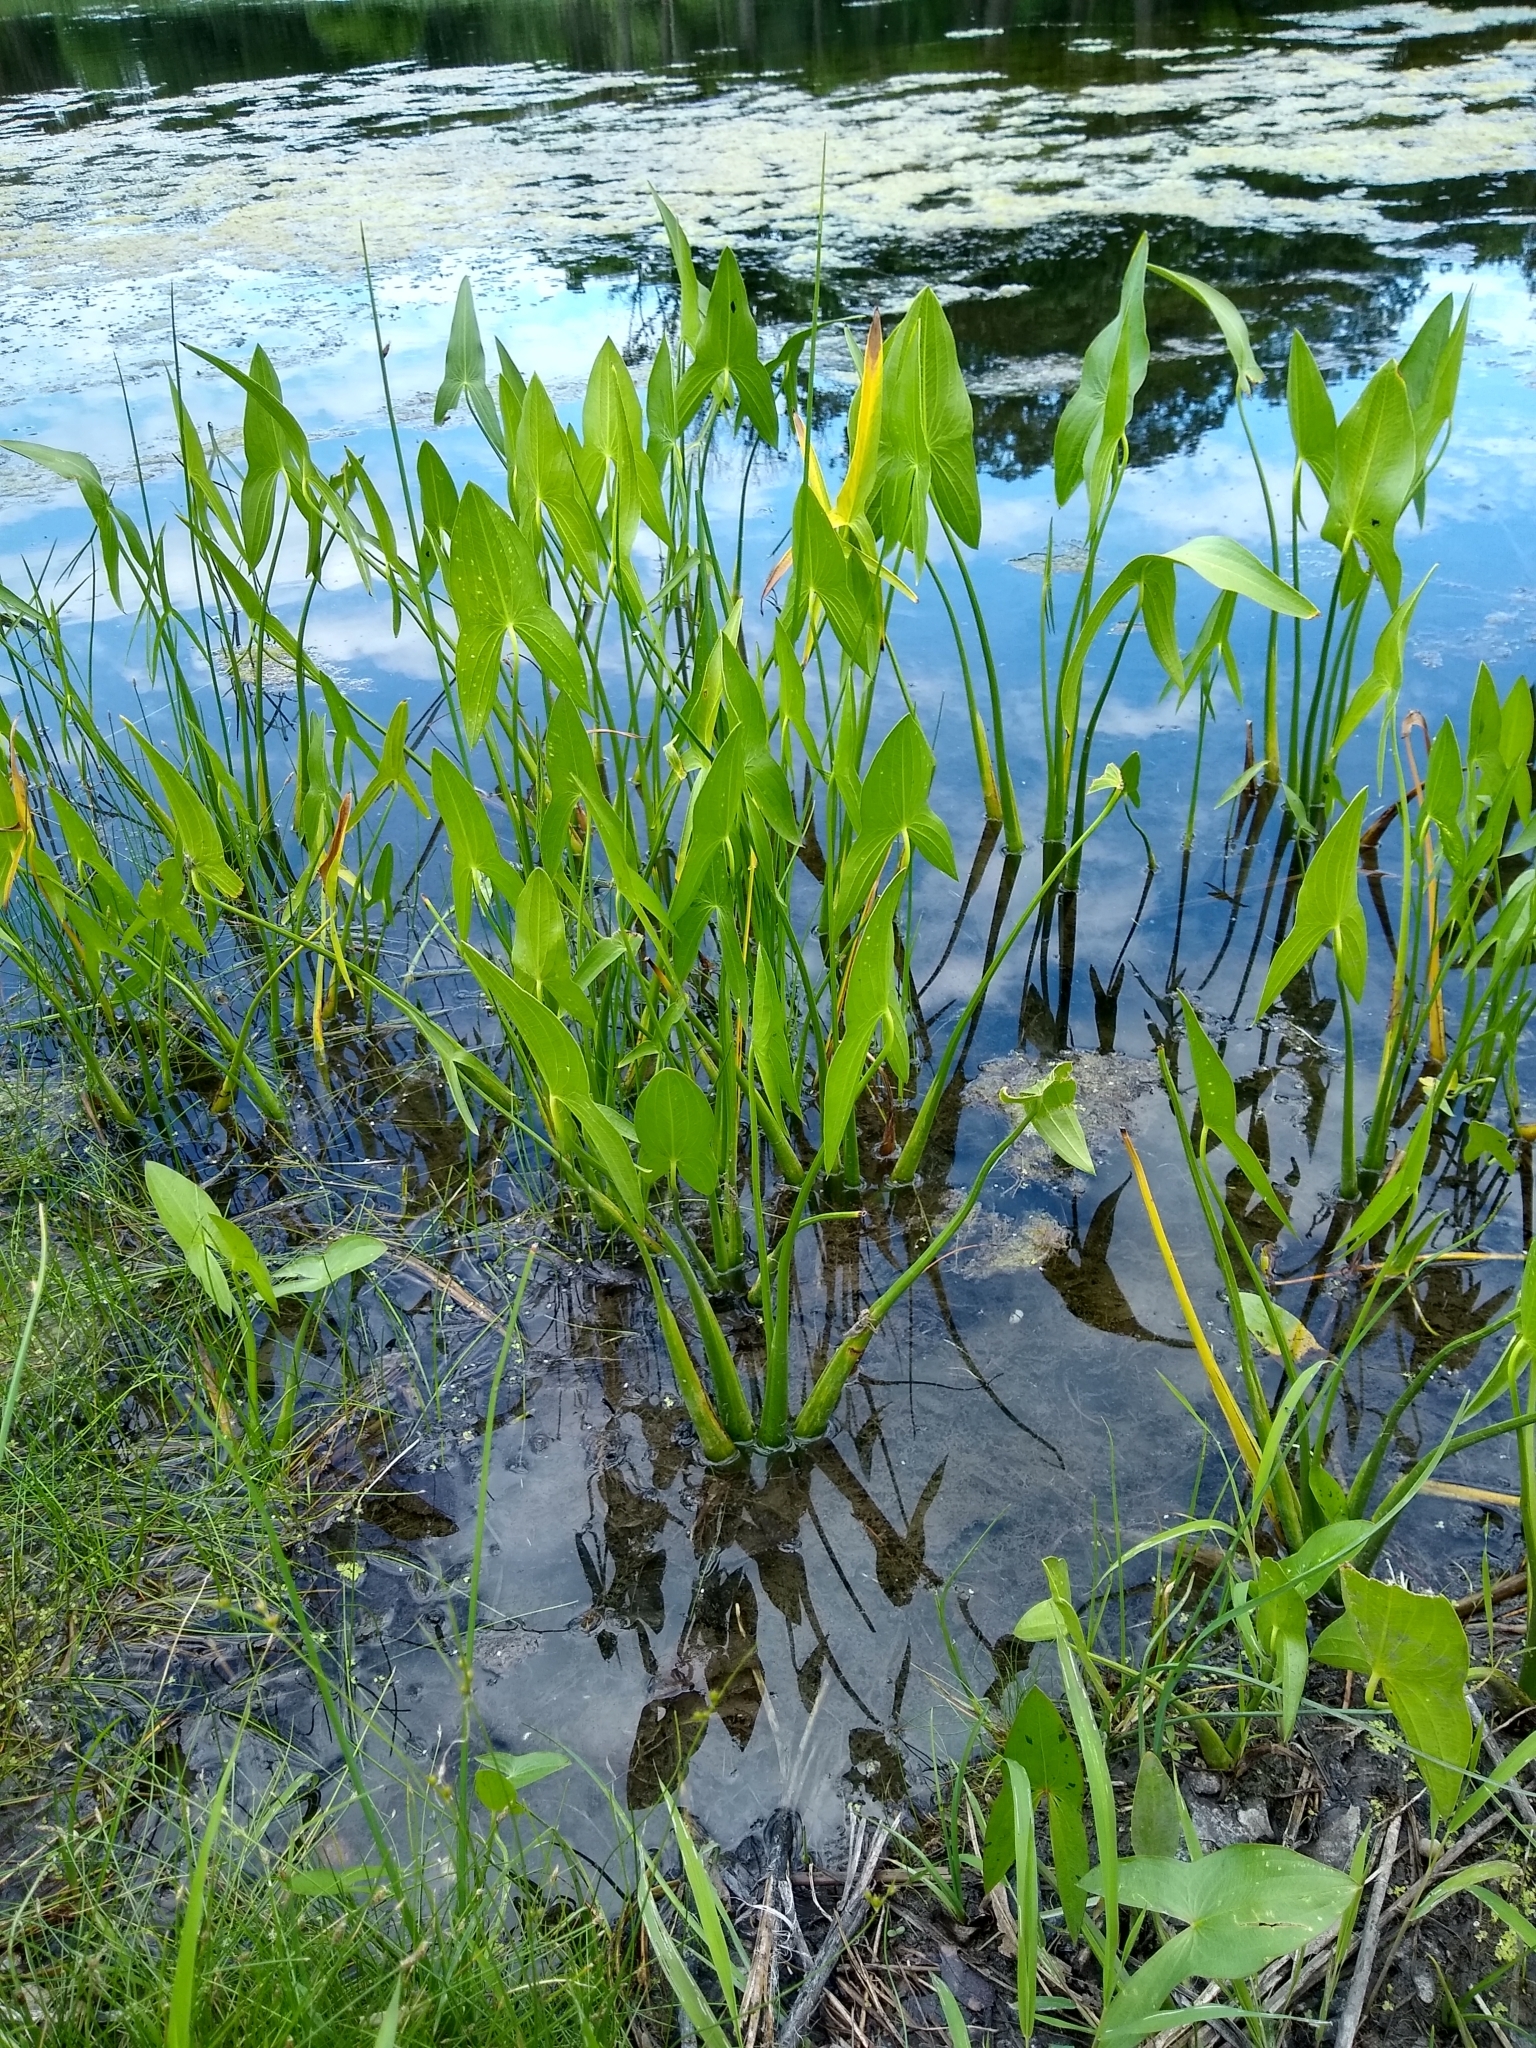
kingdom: Plantae
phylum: Tracheophyta
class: Liliopsida
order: Alismatales
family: Alismataceae
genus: Sagittaria
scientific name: Sagittaria
